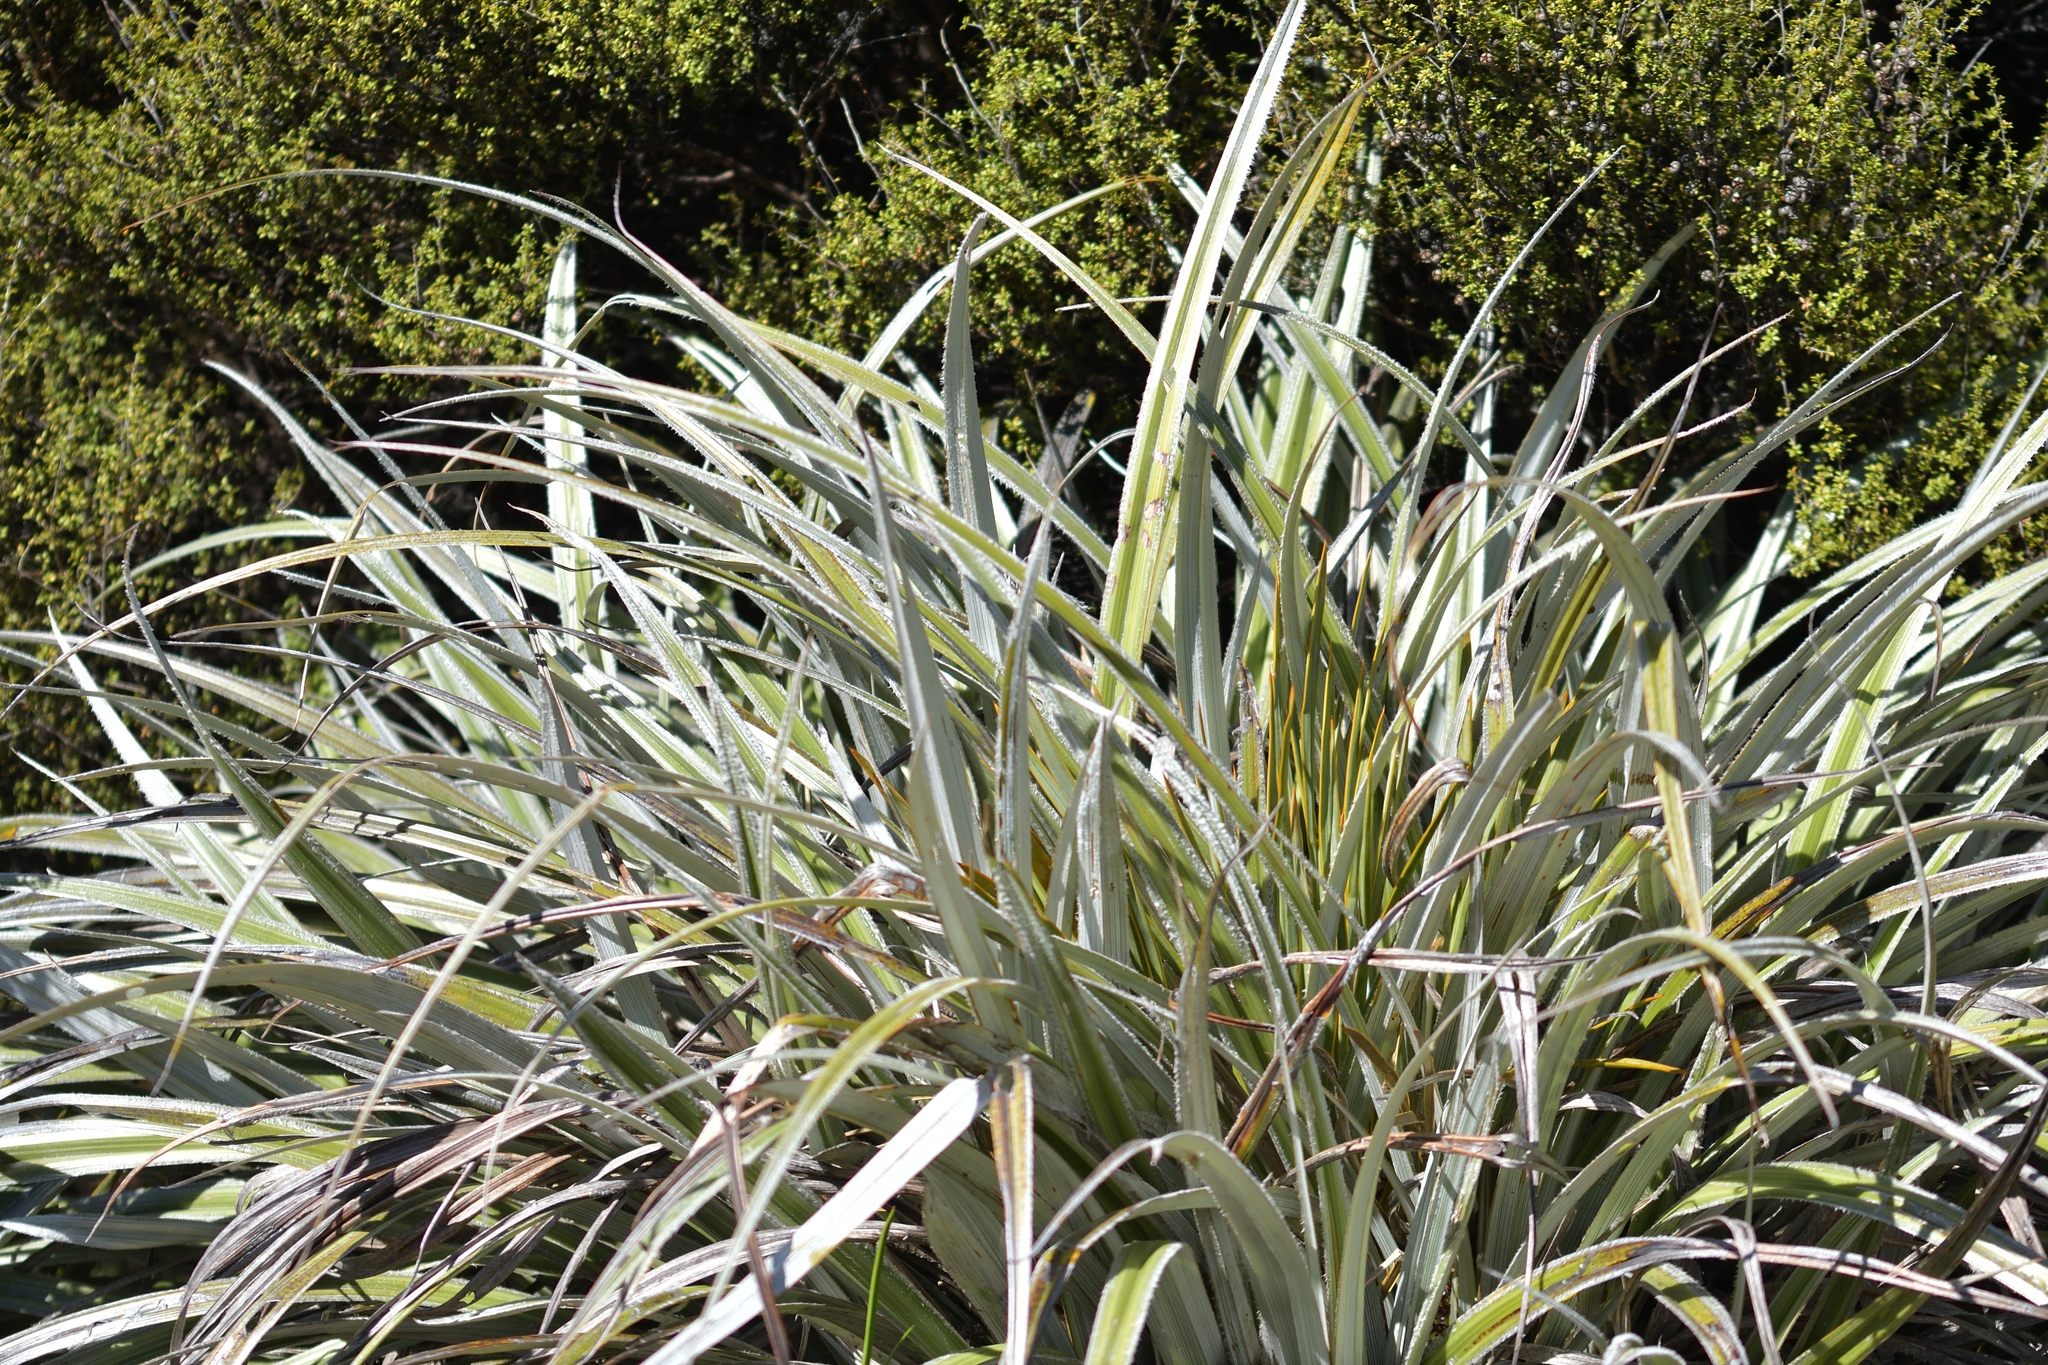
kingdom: Plantae
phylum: Tracheophyta
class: Liliopsida
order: Asparagales
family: Asteliaceae
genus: Astelia
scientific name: Astelia nervosa
